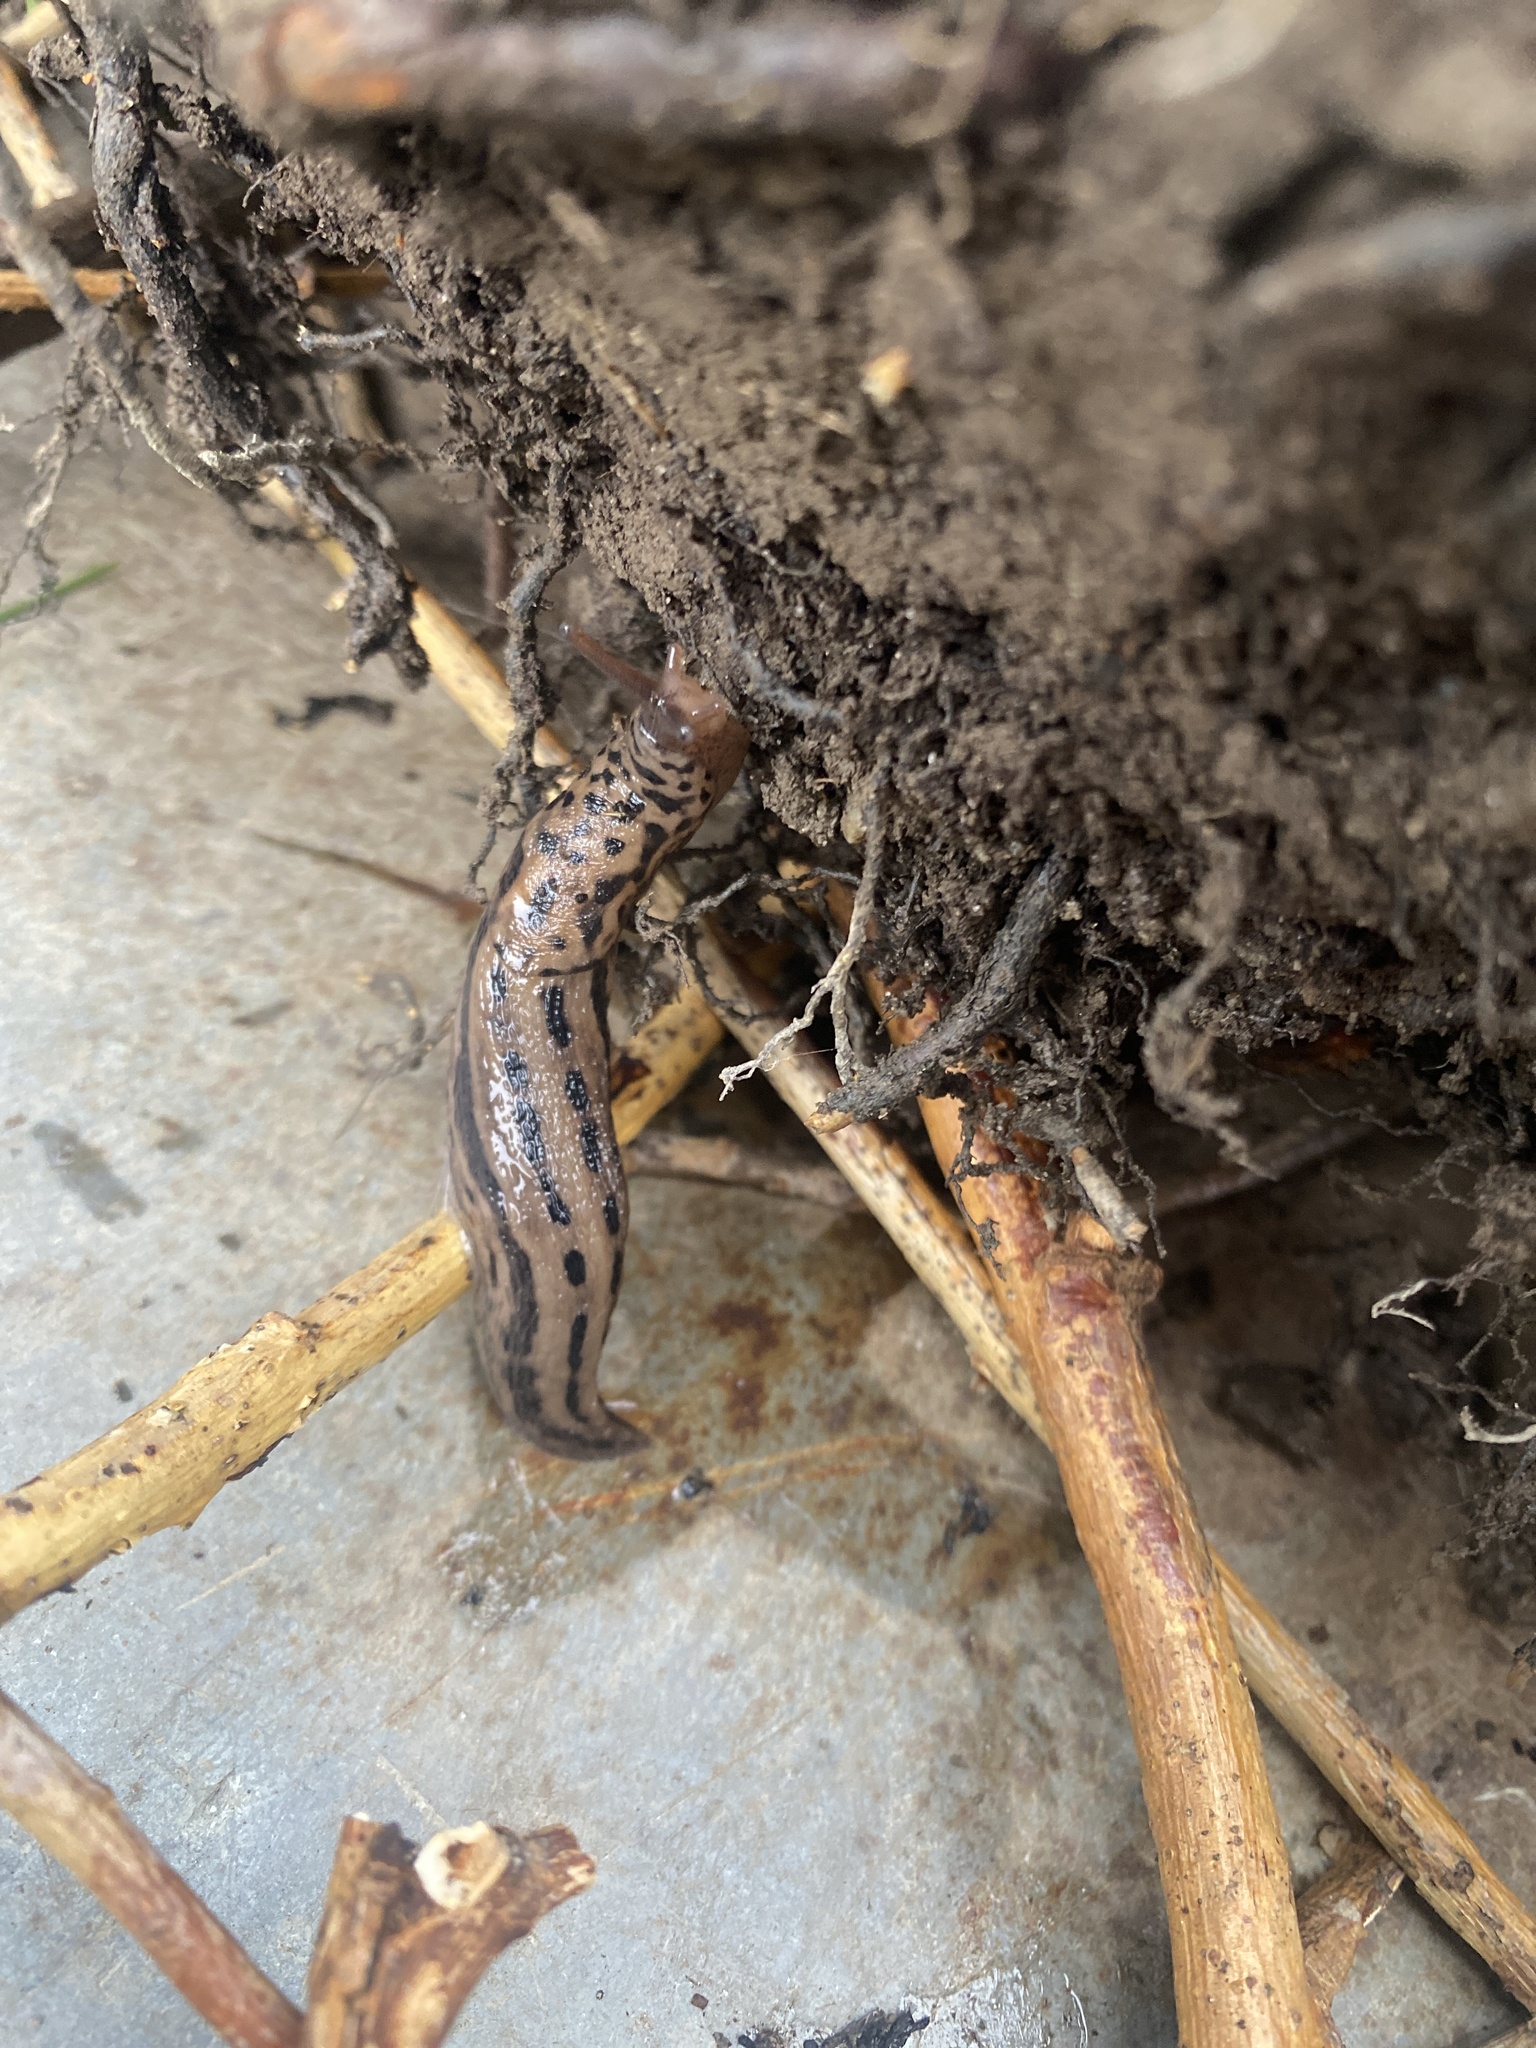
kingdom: Animalia
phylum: Mollusca
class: Gastropoda
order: Stylommatophora
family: Limacidae
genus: Limax
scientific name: Limax maximus
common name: Great grey slug
